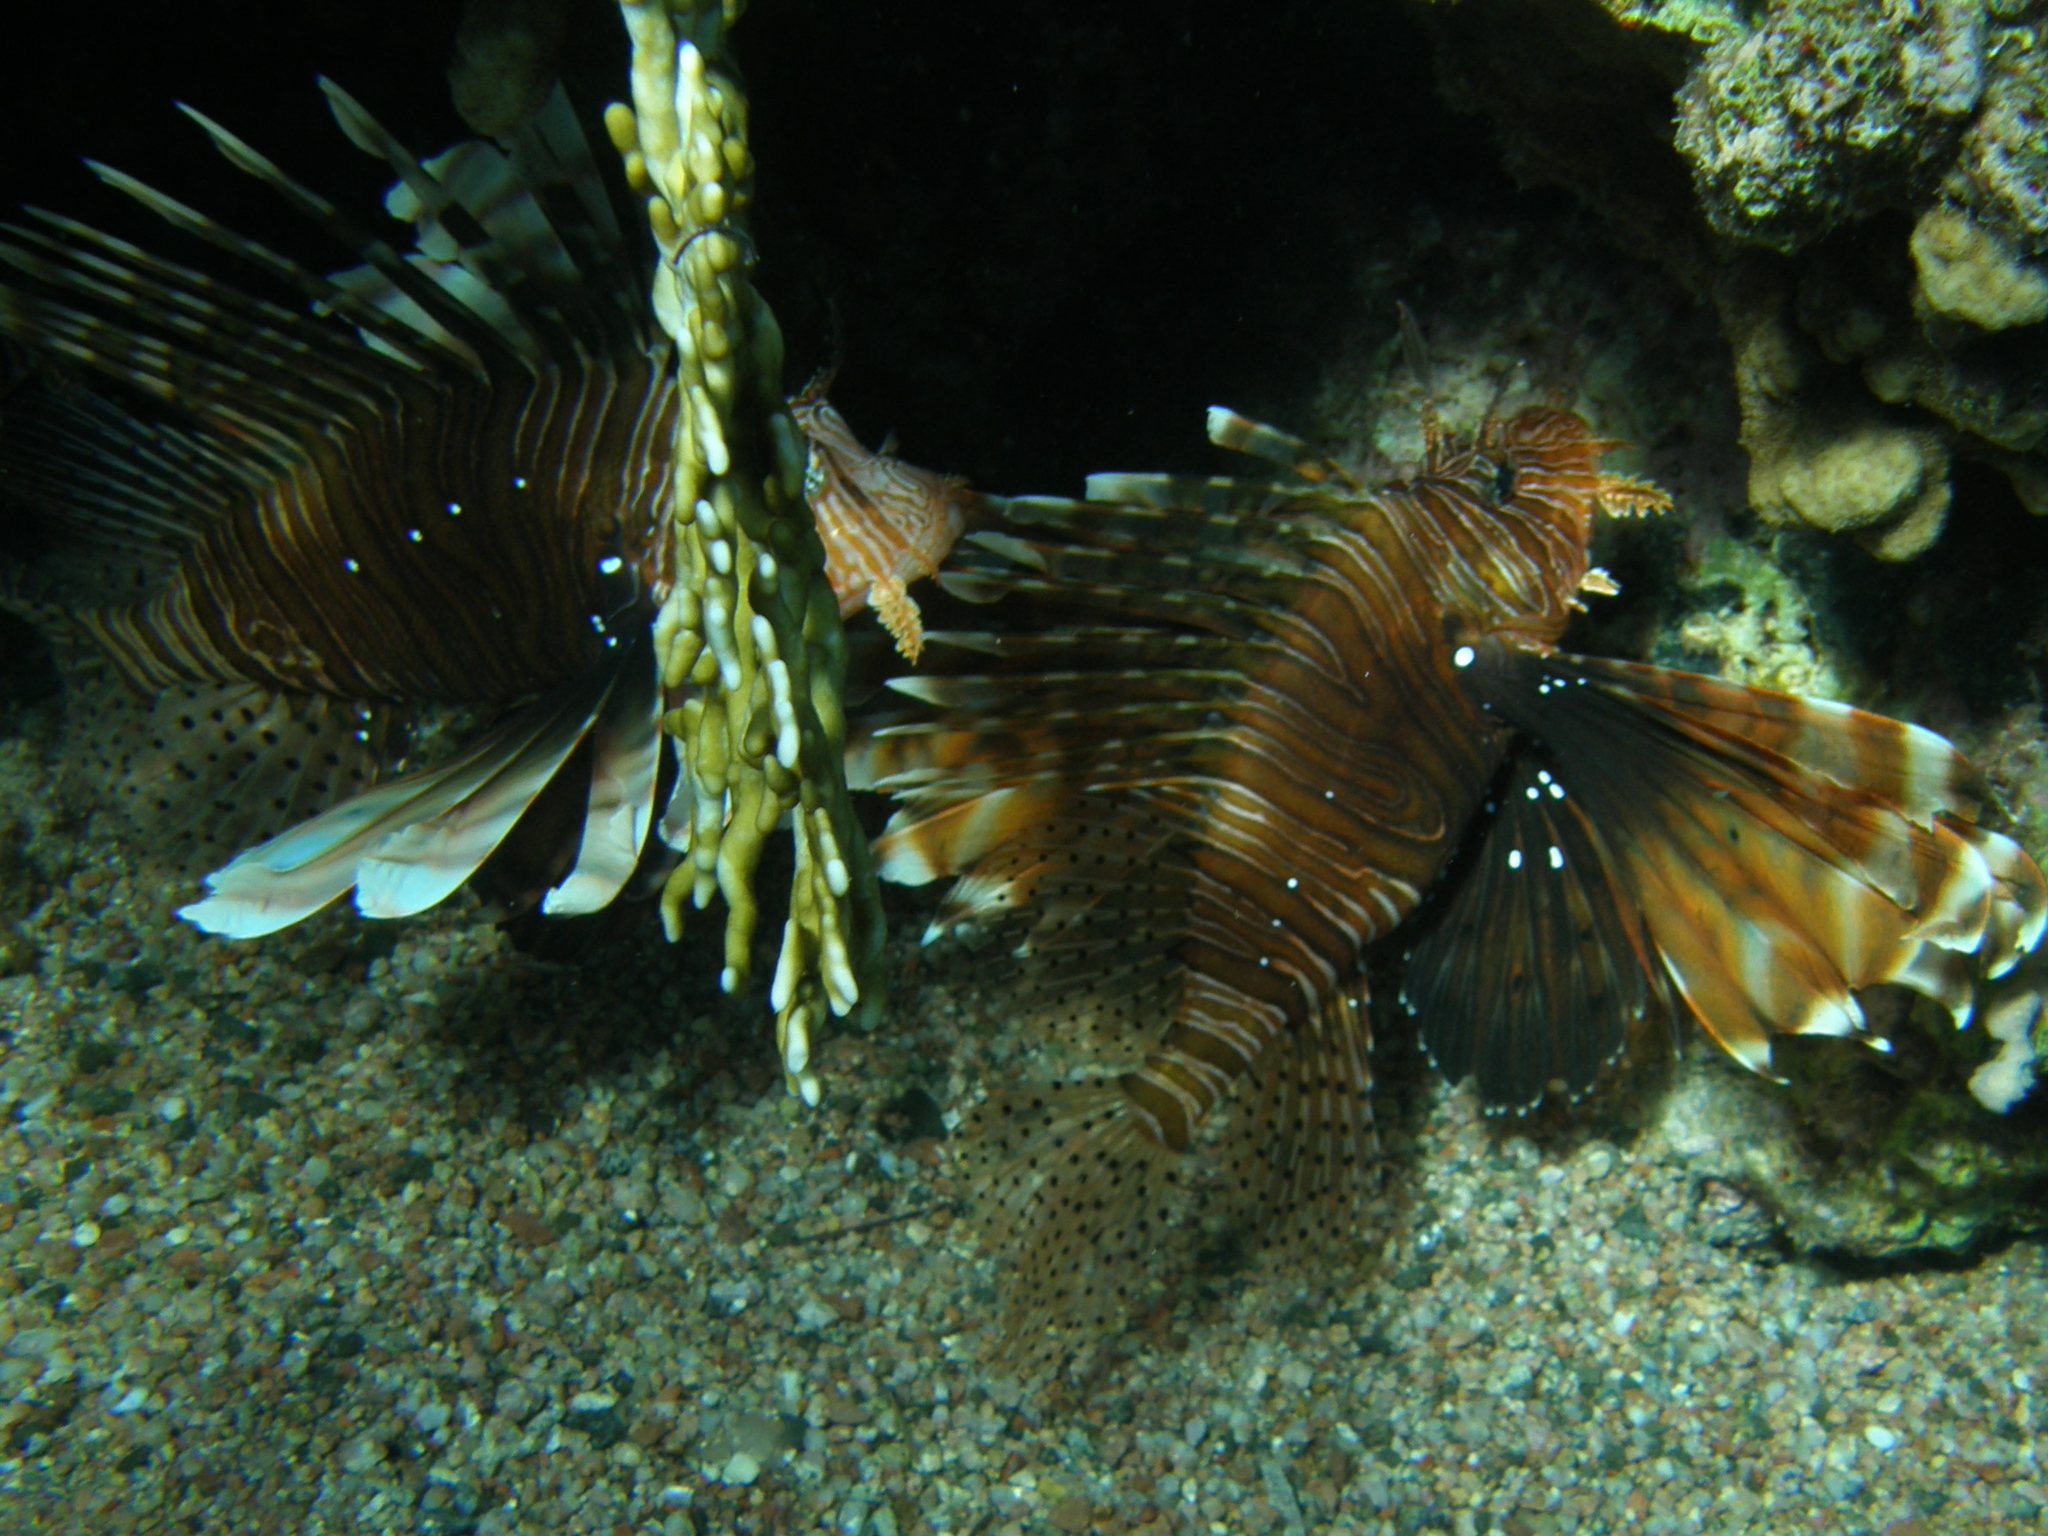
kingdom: Animalia
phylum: Chordata
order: Scorpaeniformes
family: Scorpaenidae
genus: Pterois
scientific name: Pterois miles
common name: Devil firefish
